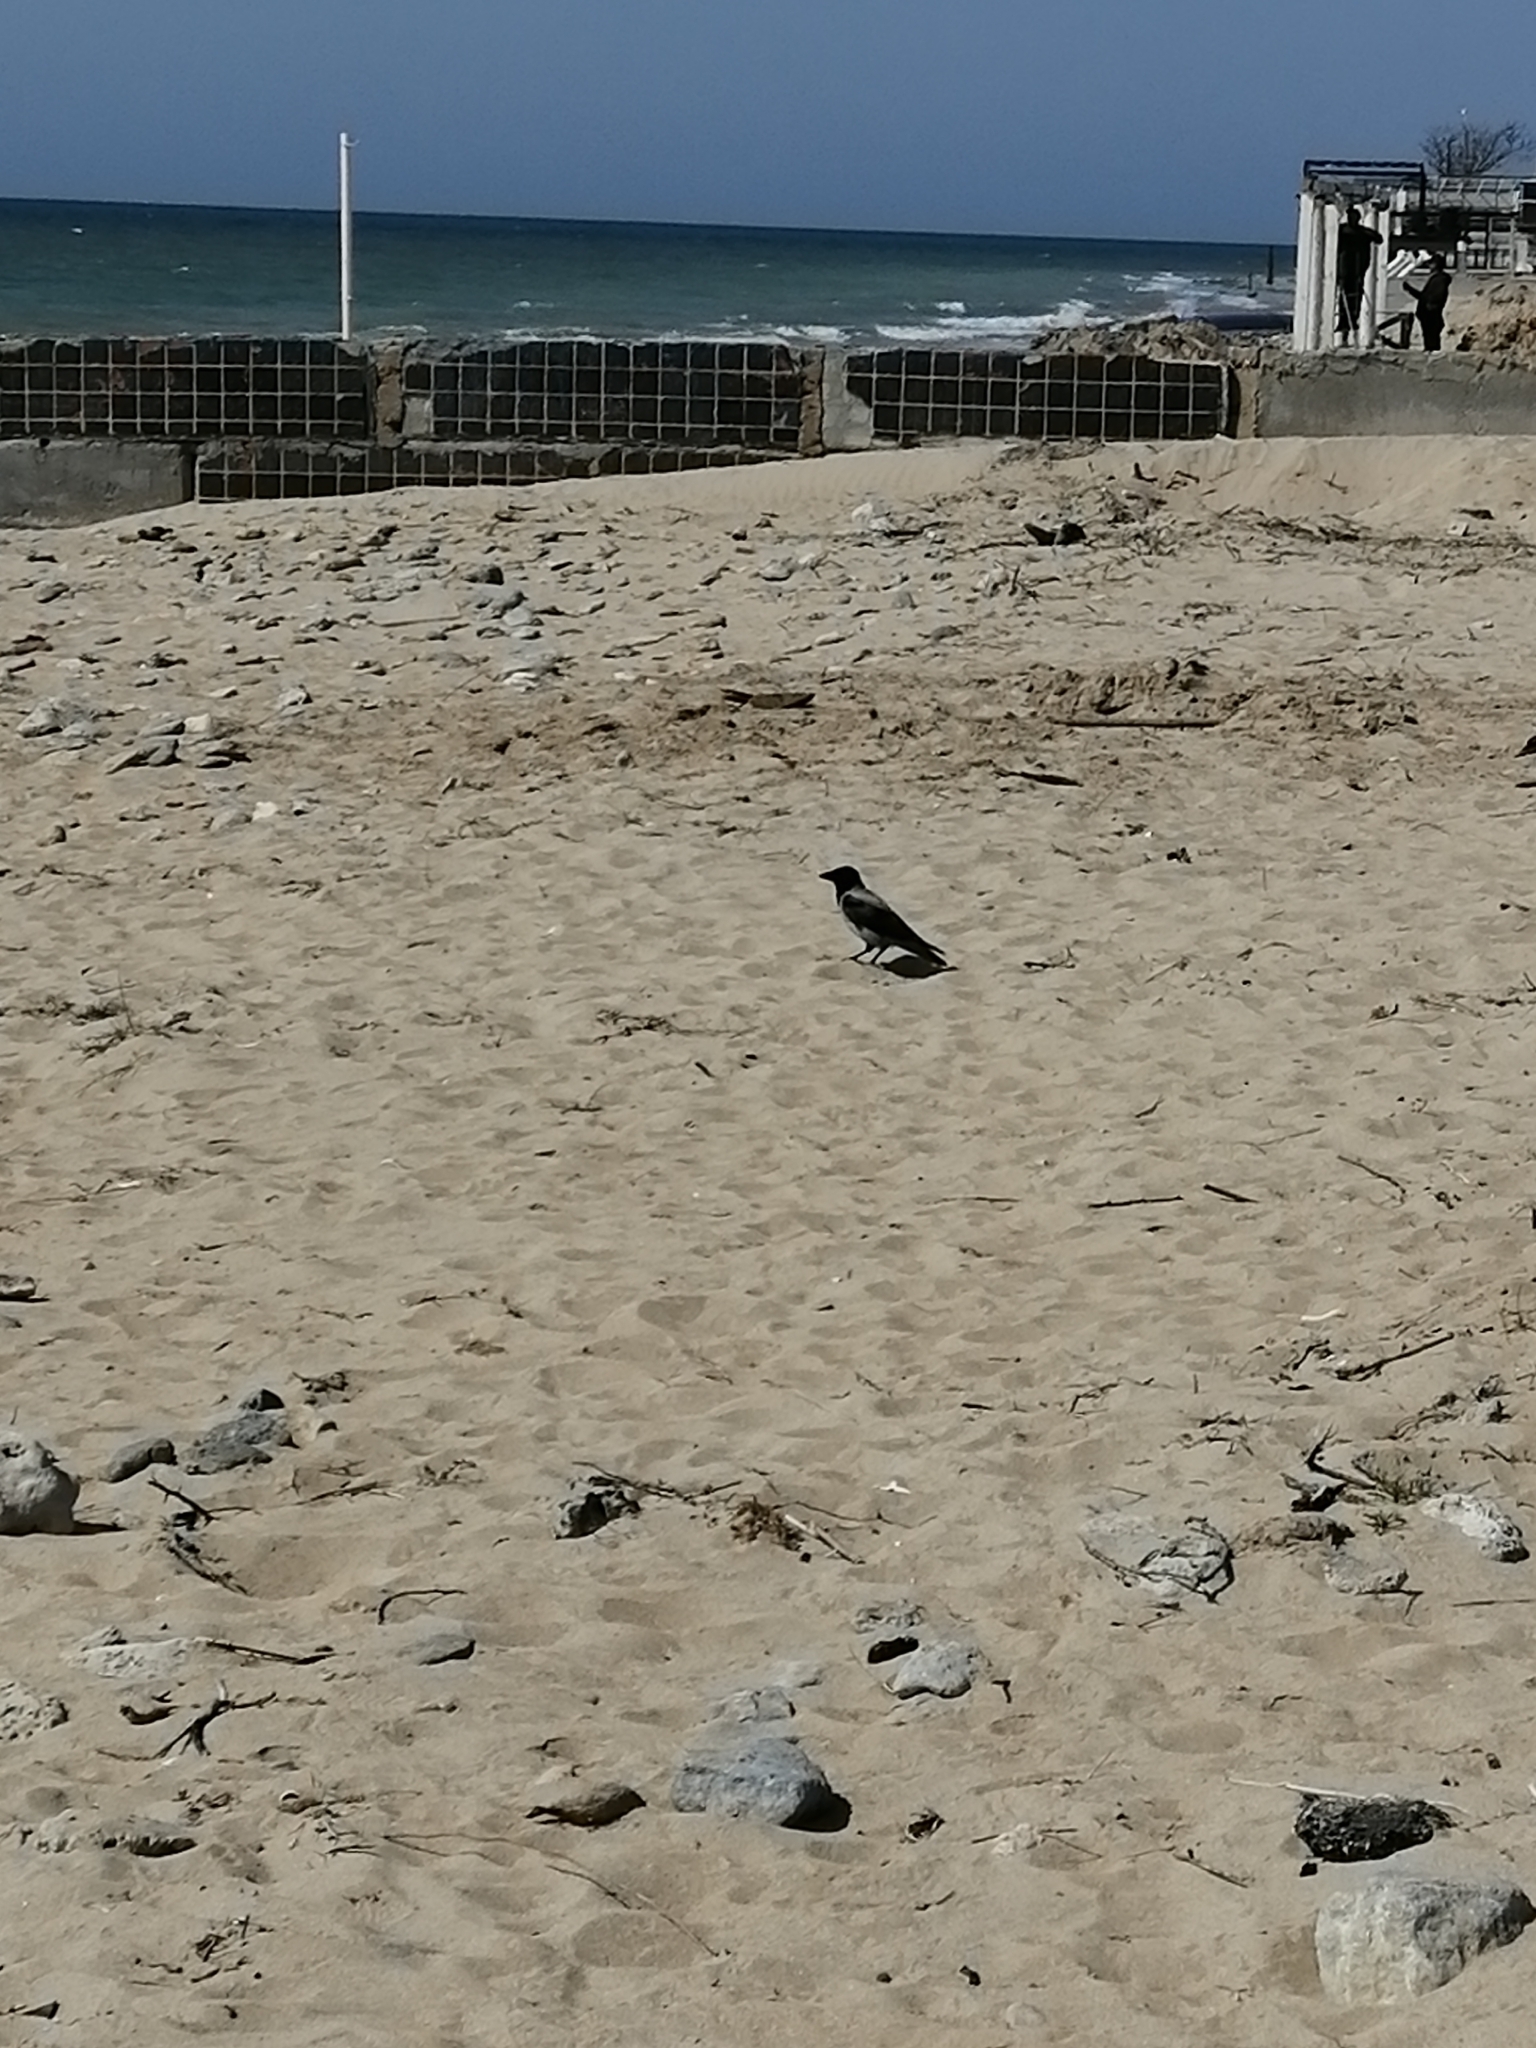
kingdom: Animalia
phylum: Chordata
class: Aves
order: Passeriformes
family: Corvidae
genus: Corvus
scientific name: Corvus cornix
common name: Hooded crow
